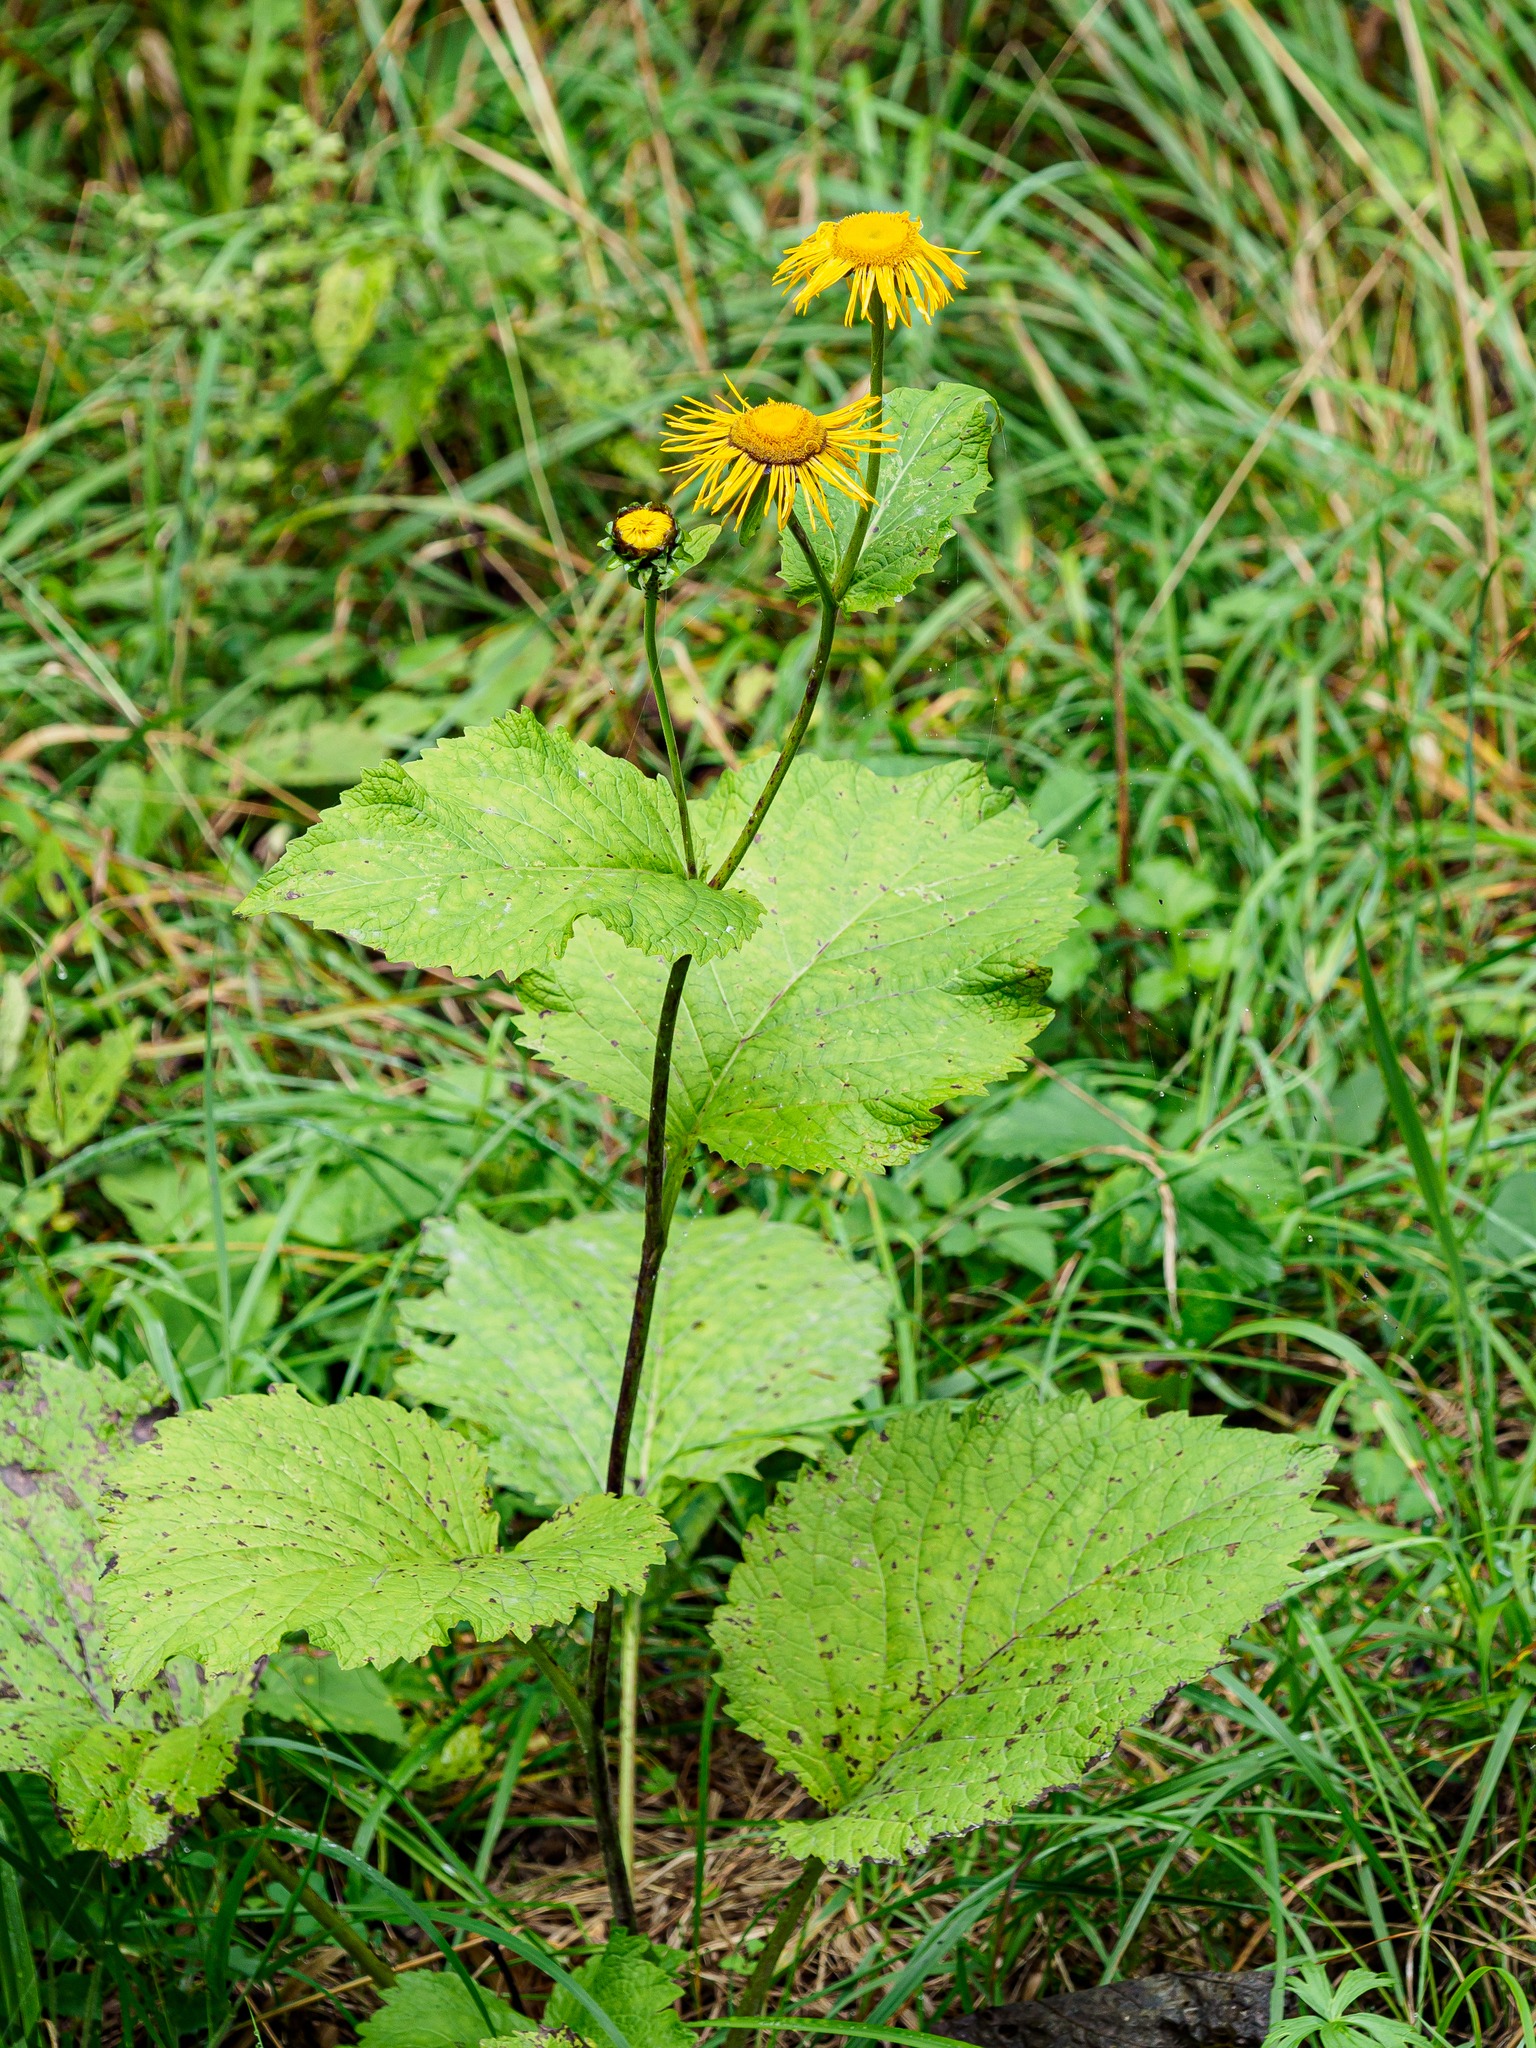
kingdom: Plantae
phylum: Tracheophyta
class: Magnoliopsida
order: Asterales
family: Asteraceae
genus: Telekia
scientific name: Telekia speciosa
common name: Yellow oxeye
